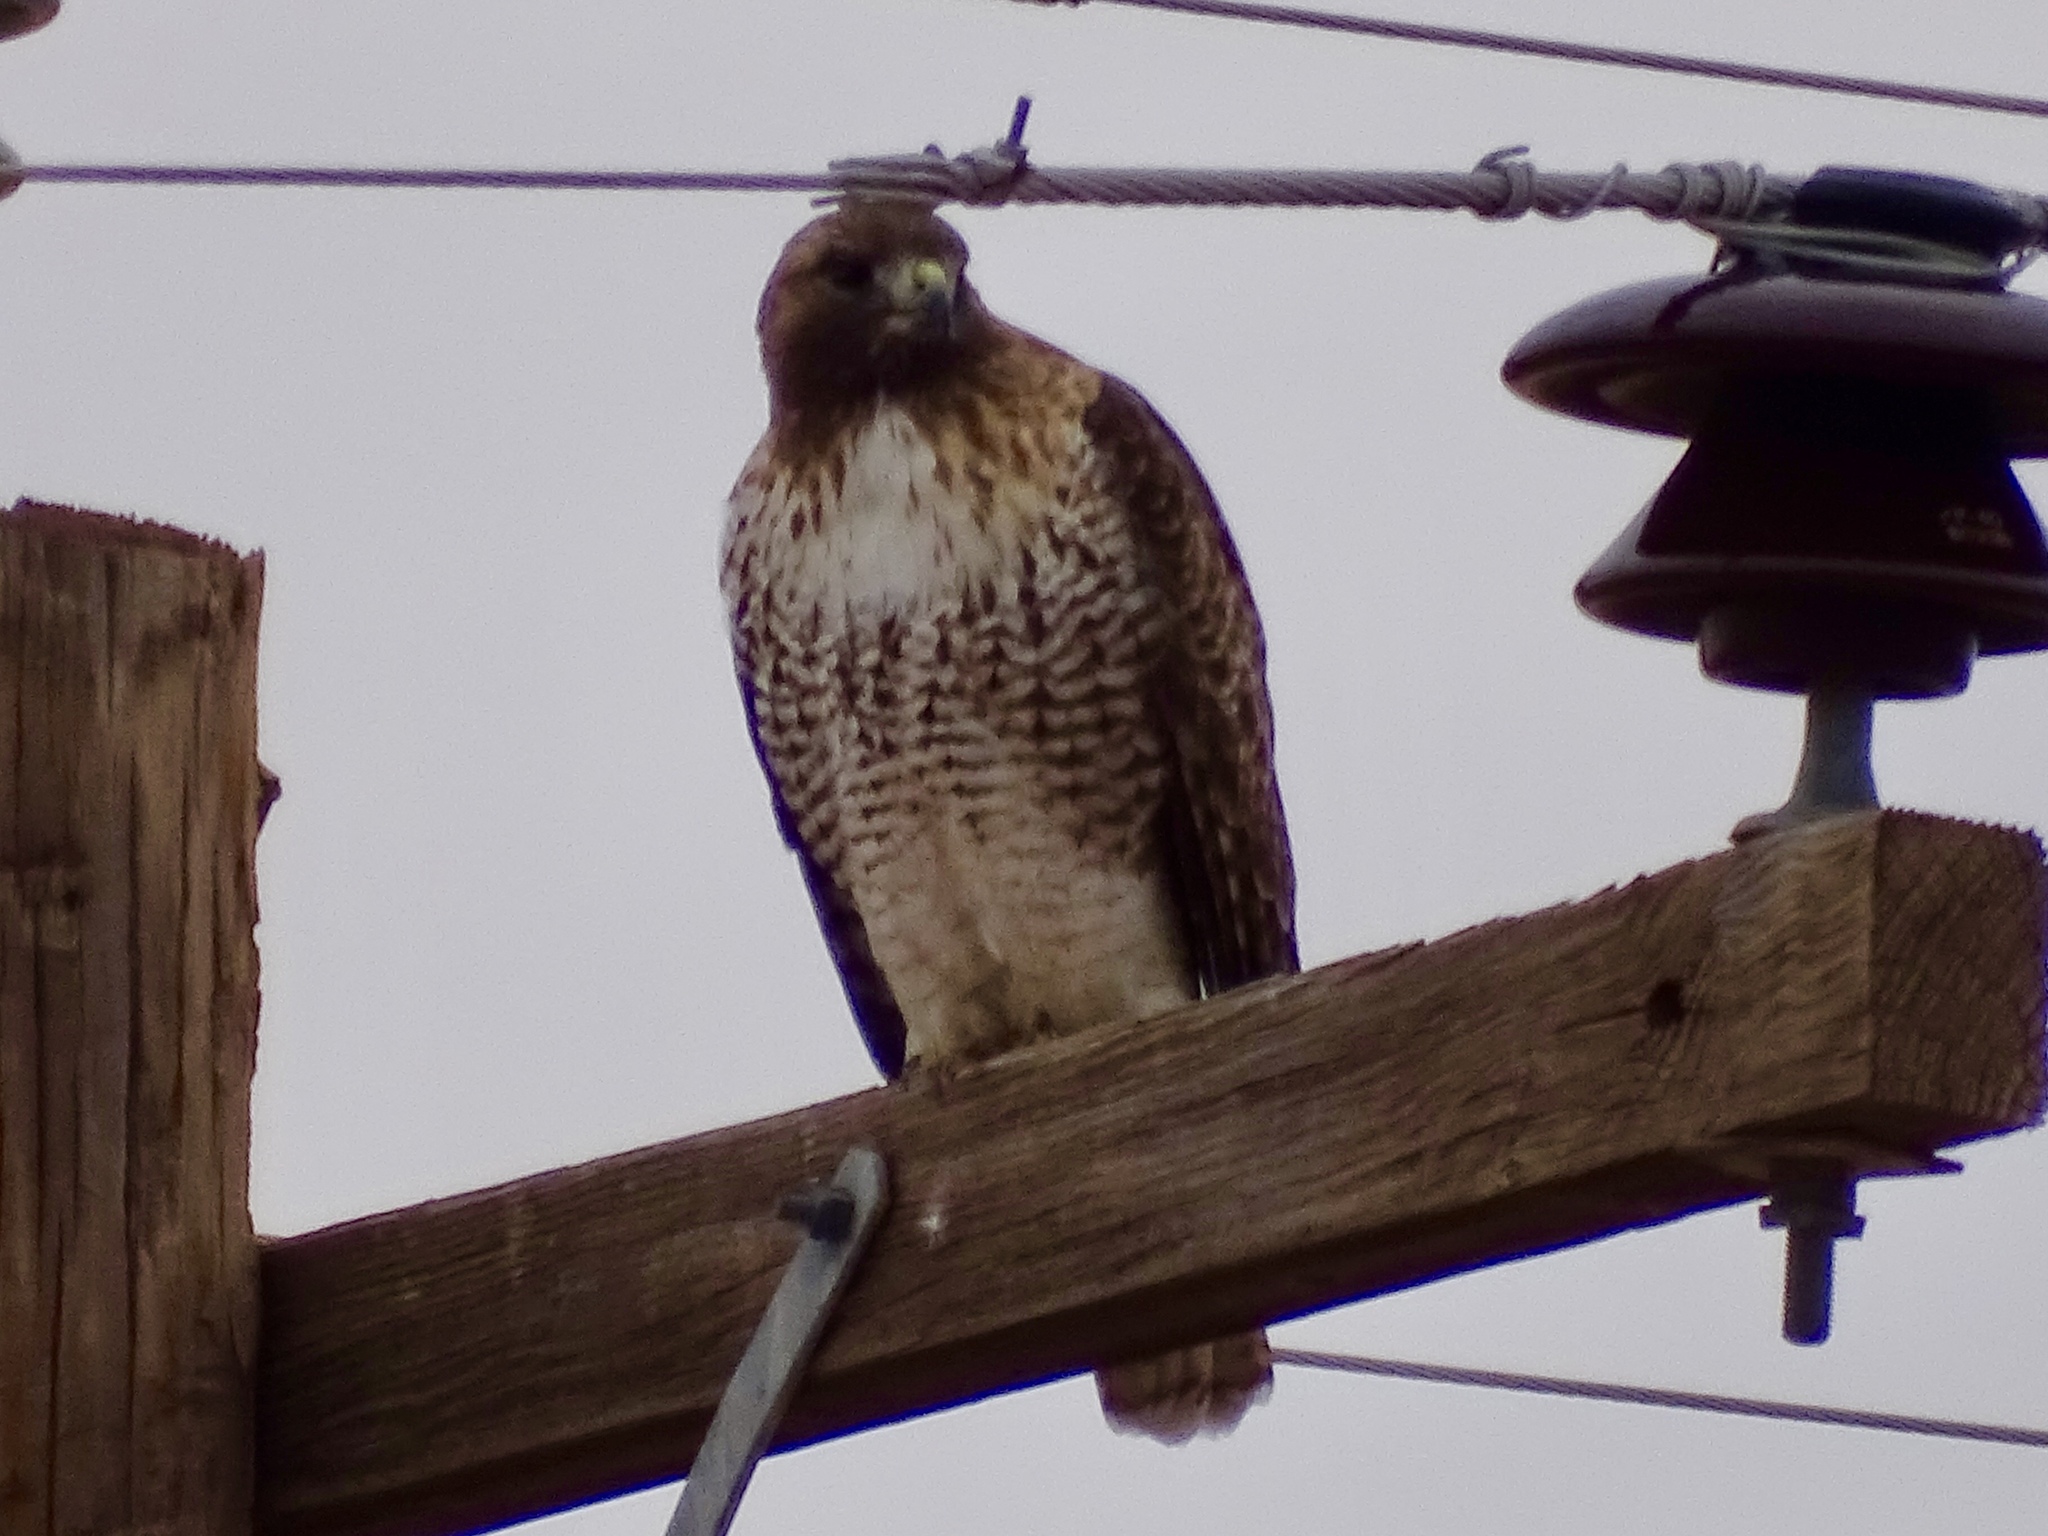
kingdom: Animalia
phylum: Chordata
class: Aves
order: Accipitriformes
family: Accipitridae
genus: Buteo
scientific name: Buteo jamaicensis
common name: Red-tailed hawk
